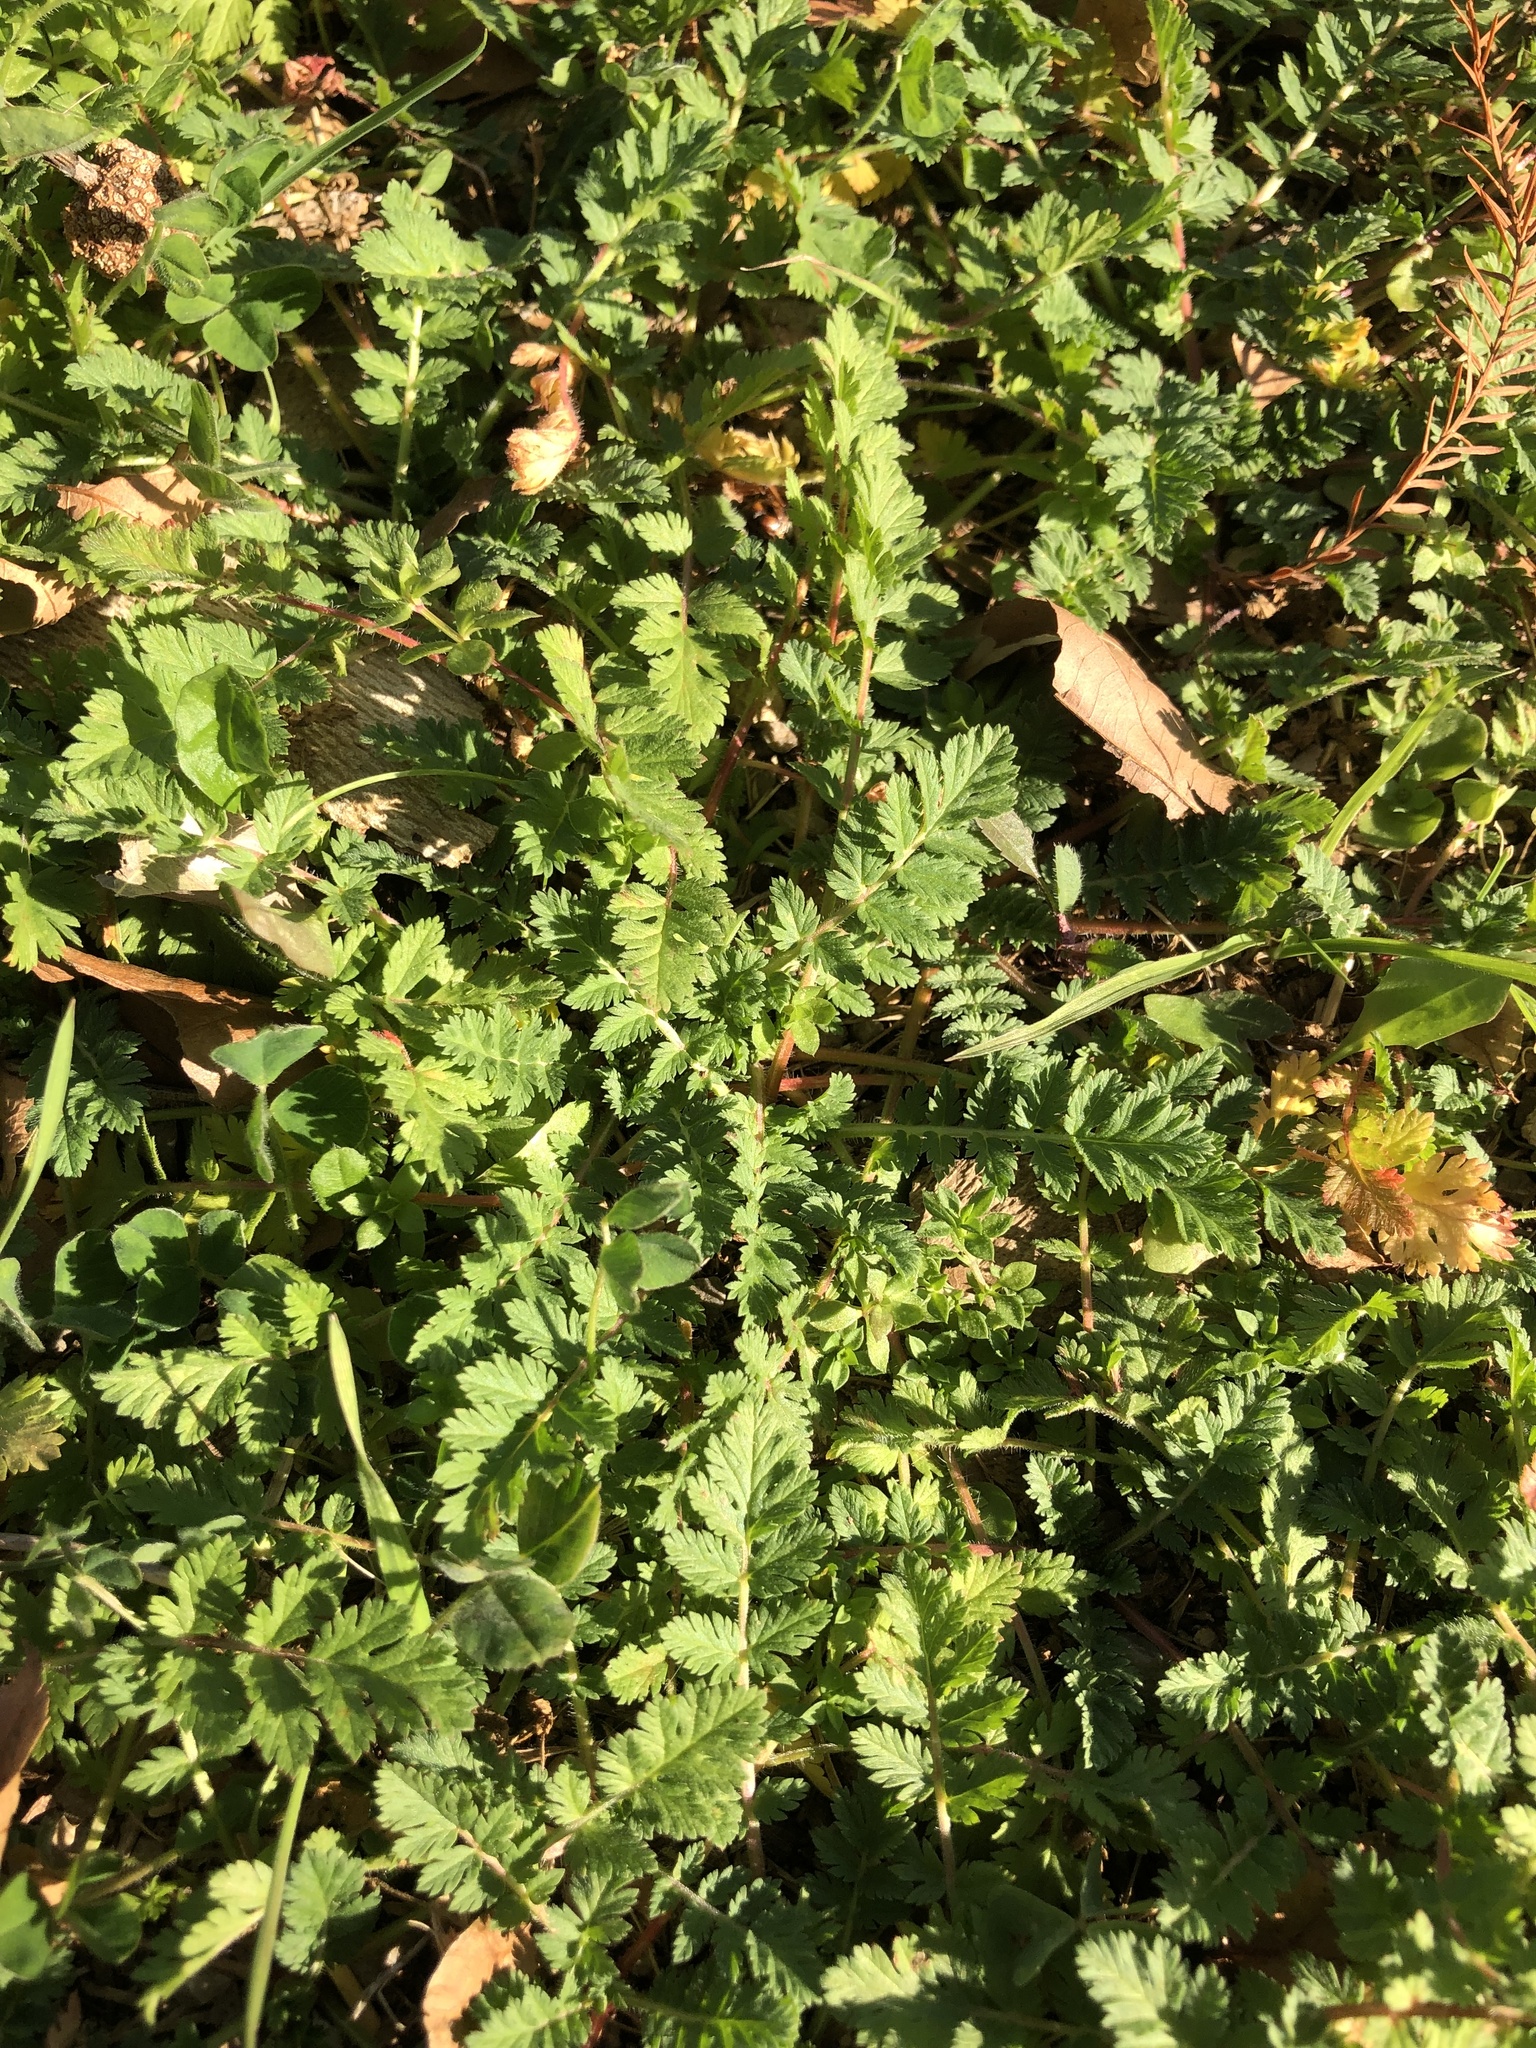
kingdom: Plantae
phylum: Tracheophyta
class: Magnoliopsida
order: Geraniales
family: Geraniaceae
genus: Erodium
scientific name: Erodium cicutarium
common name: Common stork's-bill
